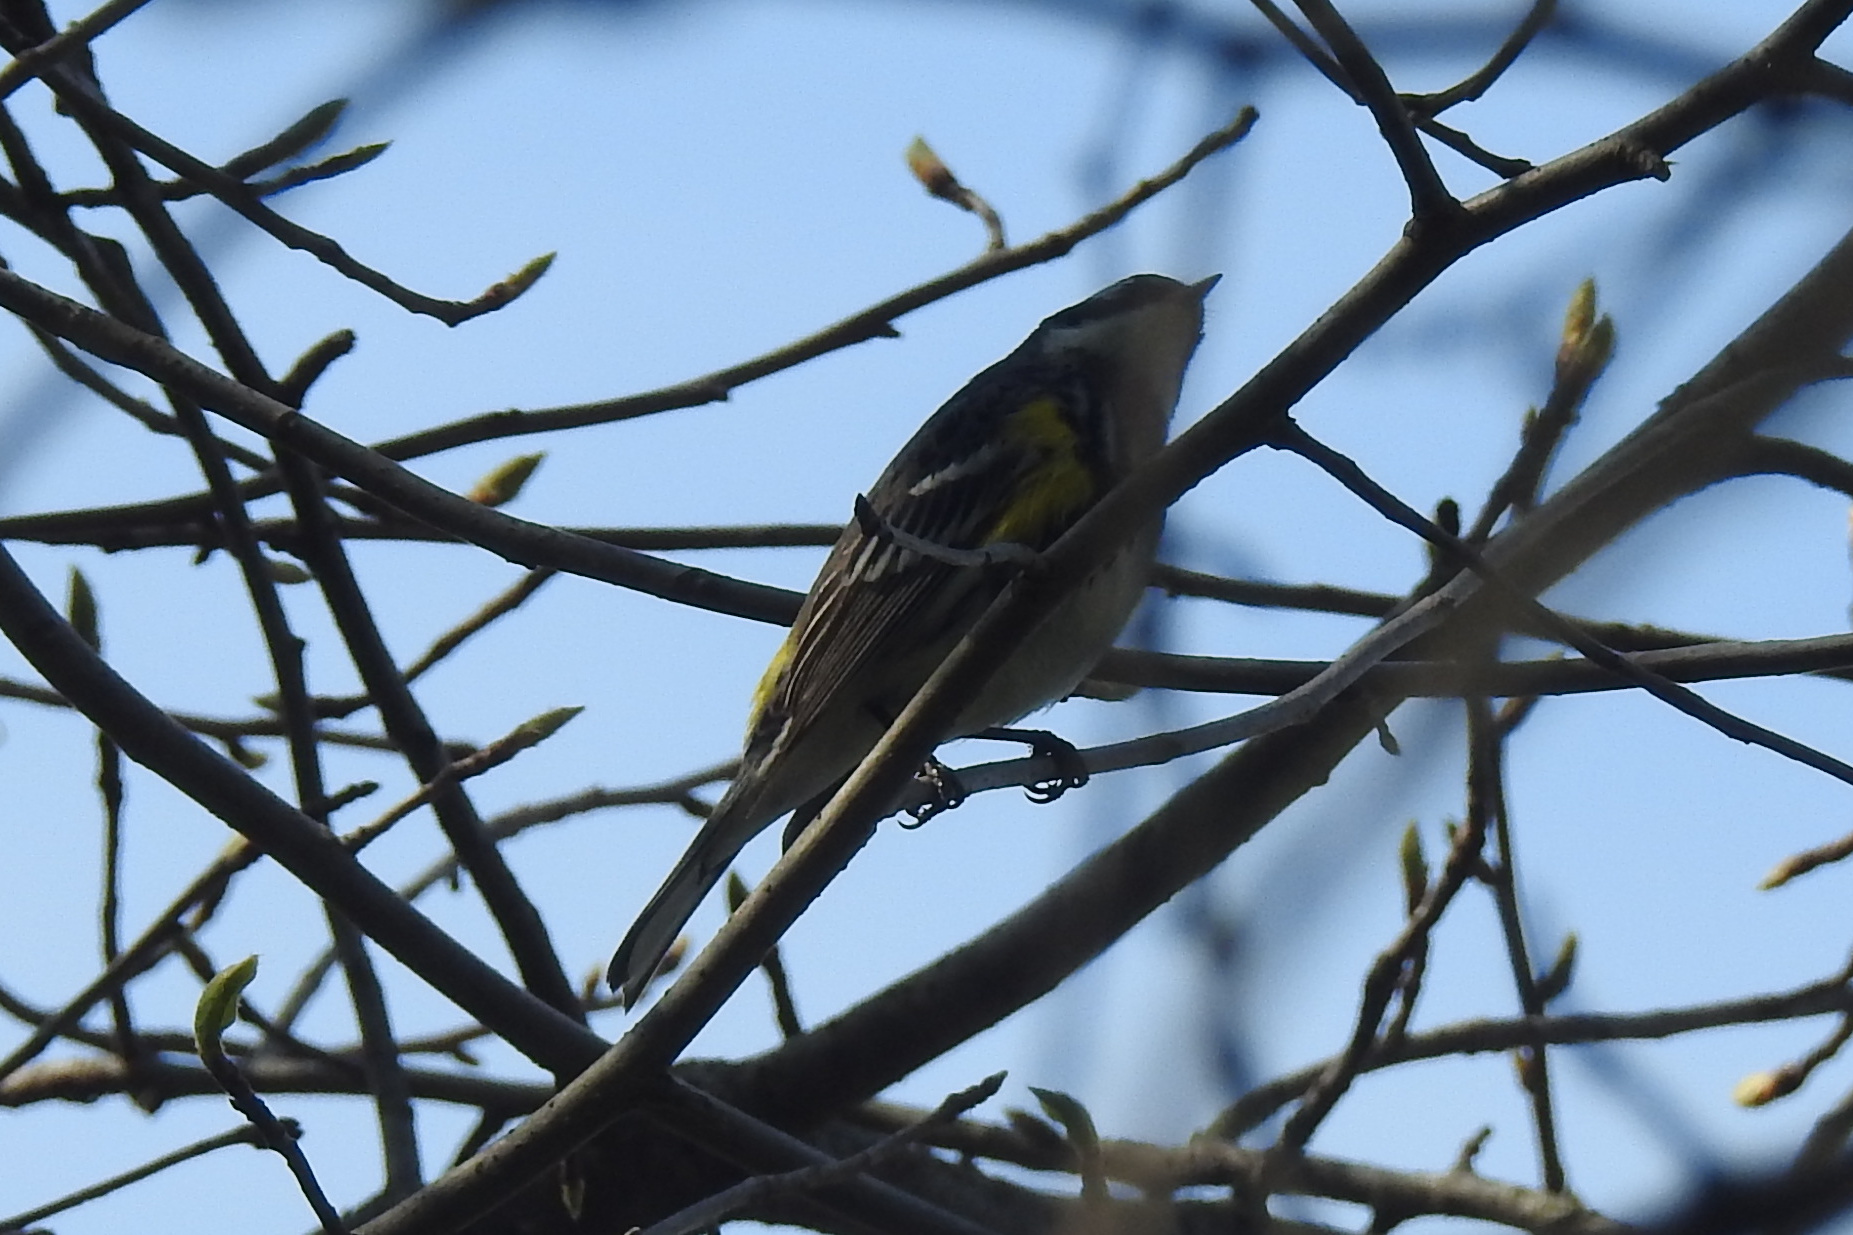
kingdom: Animalia
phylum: Chordata
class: Aves
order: Passeriformes
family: Parulidae
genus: Setophaga
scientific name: Setophaga coronata
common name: Myrtle warbler
